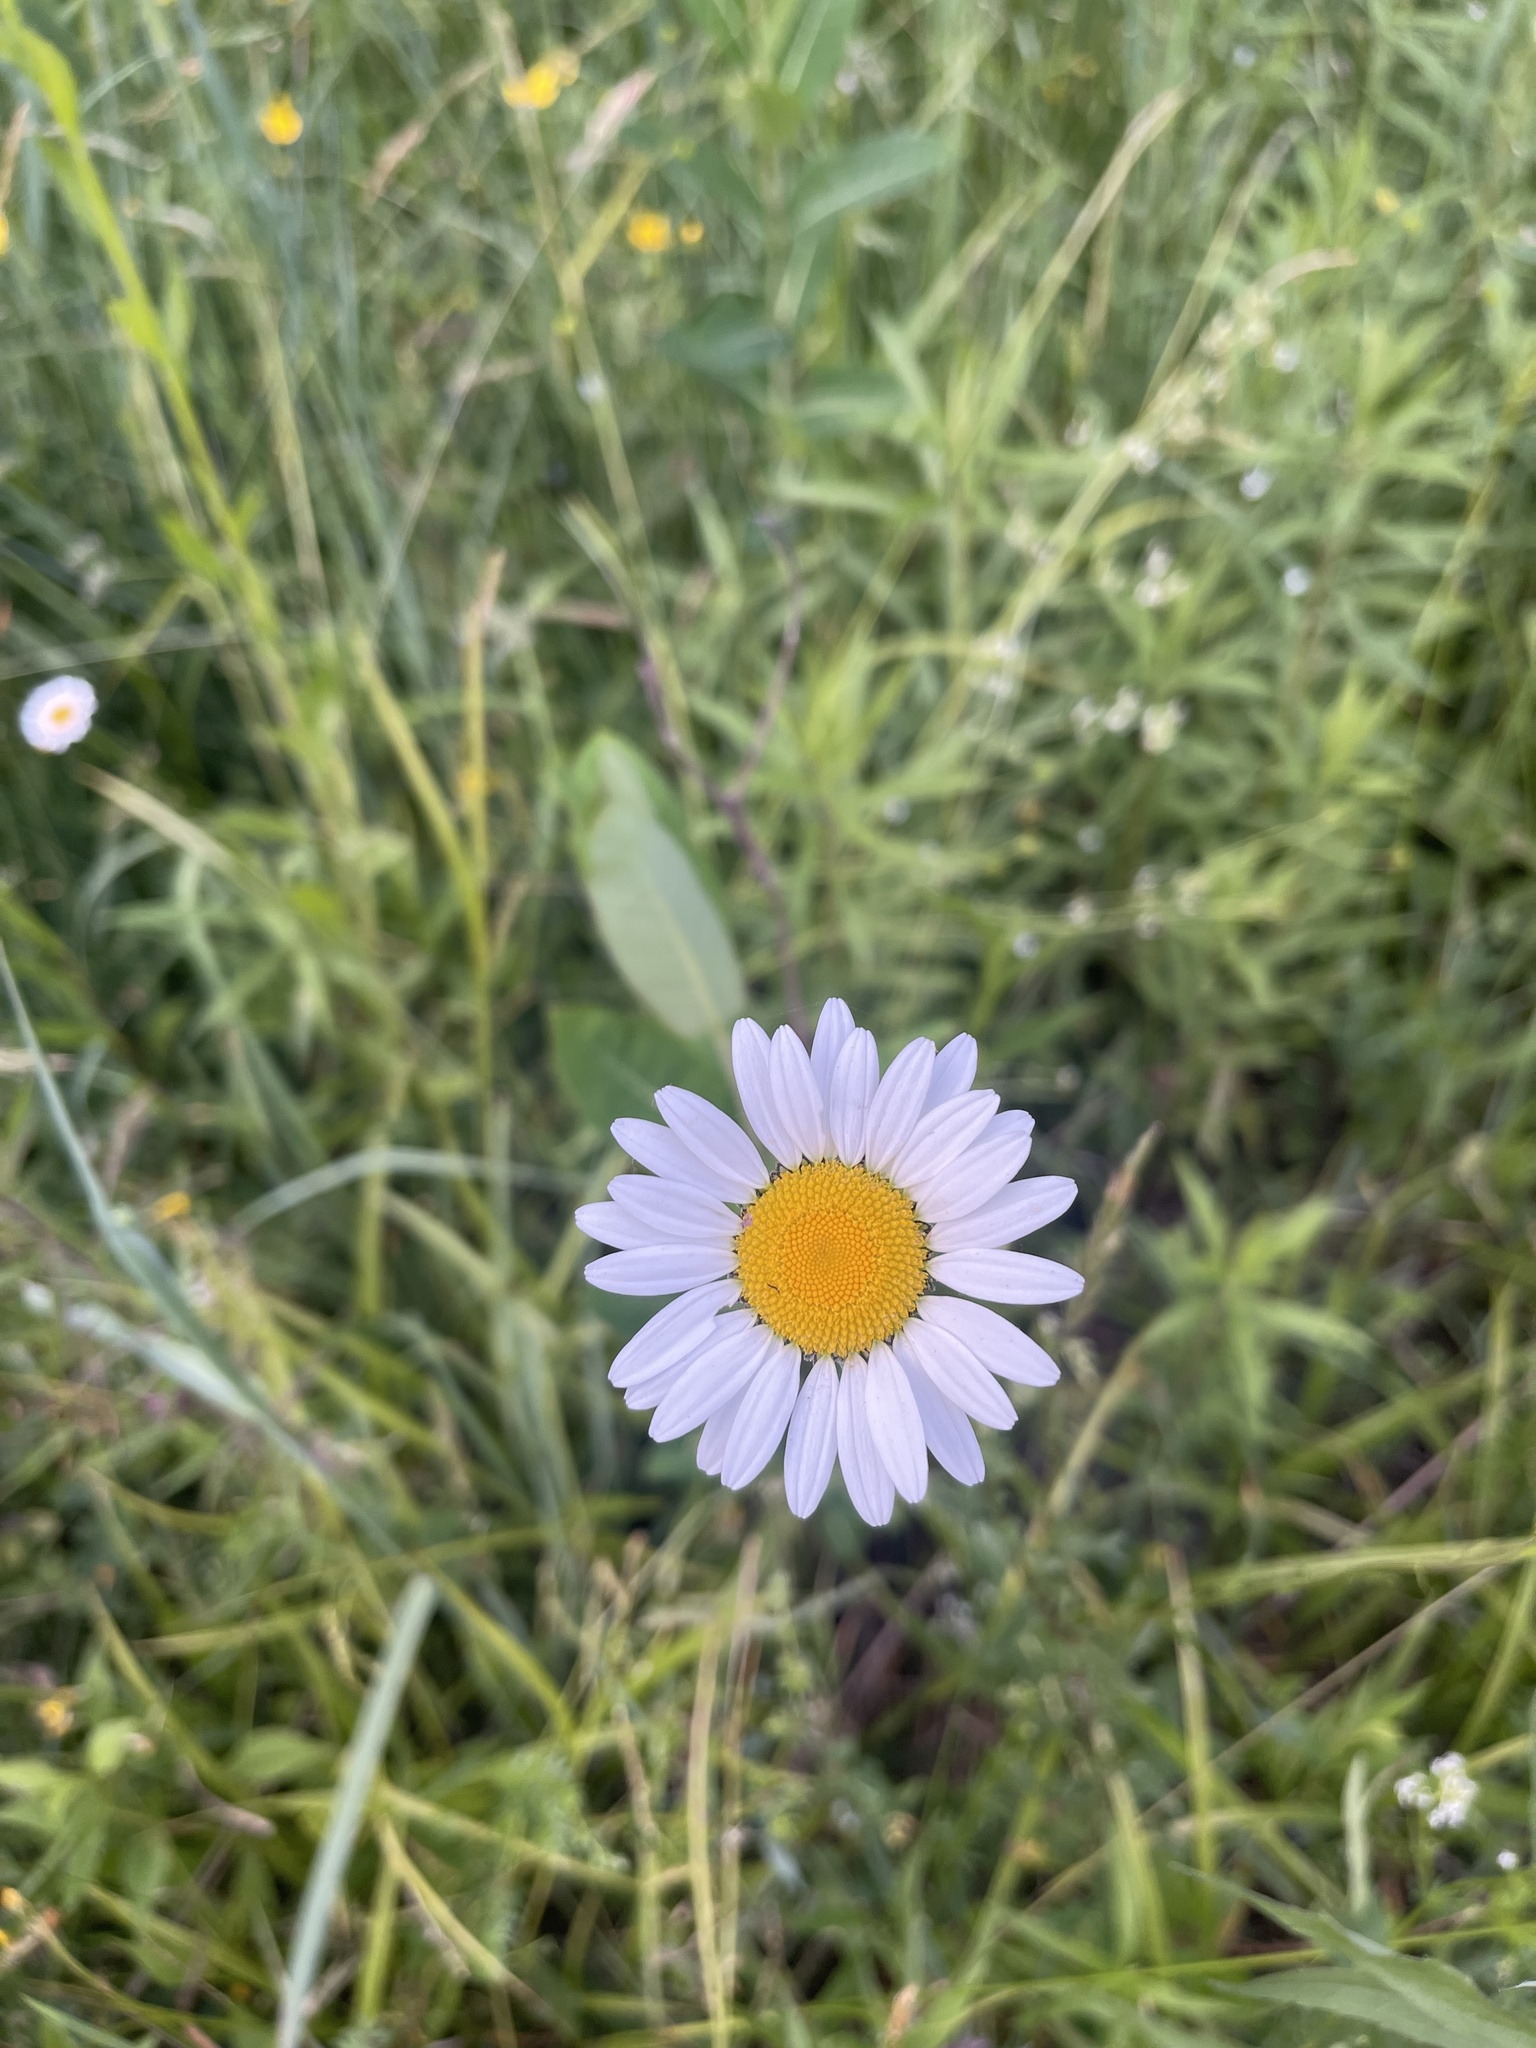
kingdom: Plantae
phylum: Tracheophyta
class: Magnoliopsida
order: Asterales
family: Asteraceae
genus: Leucanthemum
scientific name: Leucanthemum vulgare
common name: Oxeye daisy
